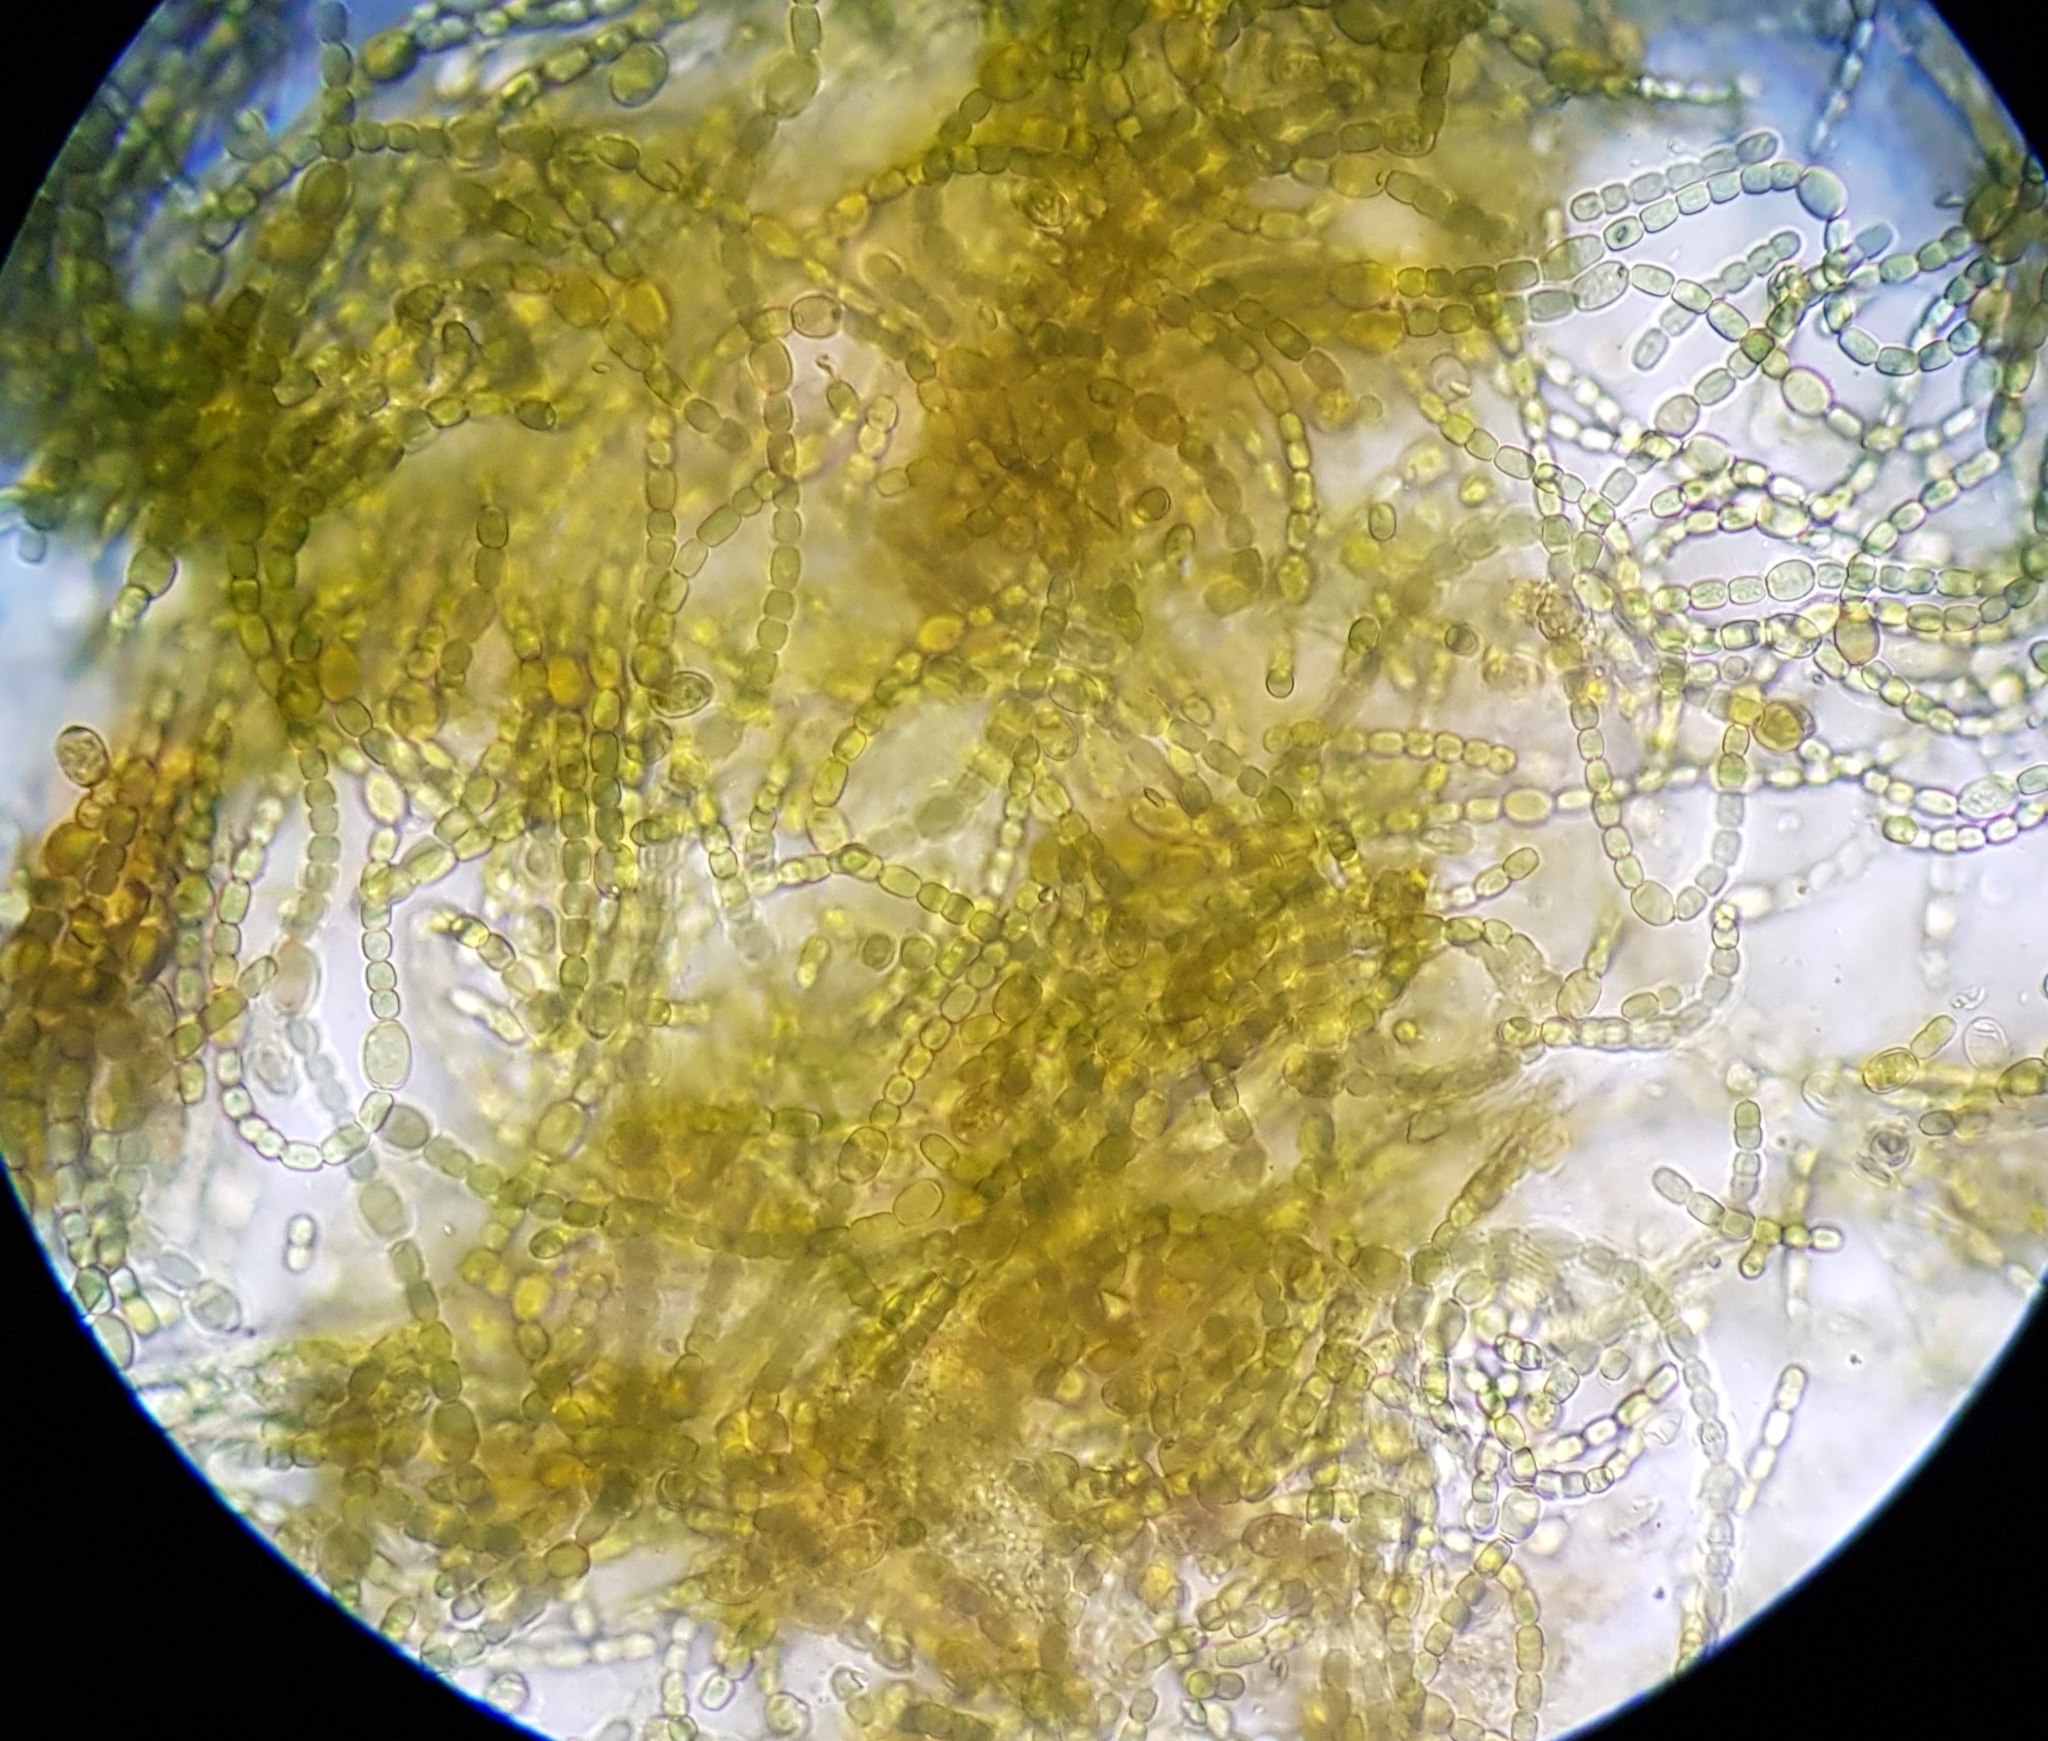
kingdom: Bacteria
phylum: Cyanobacteria
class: Cyanobacteriia
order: Cyanobacteriales
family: Nostocaceae
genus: Trichormus
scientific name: Trichormus azollae
